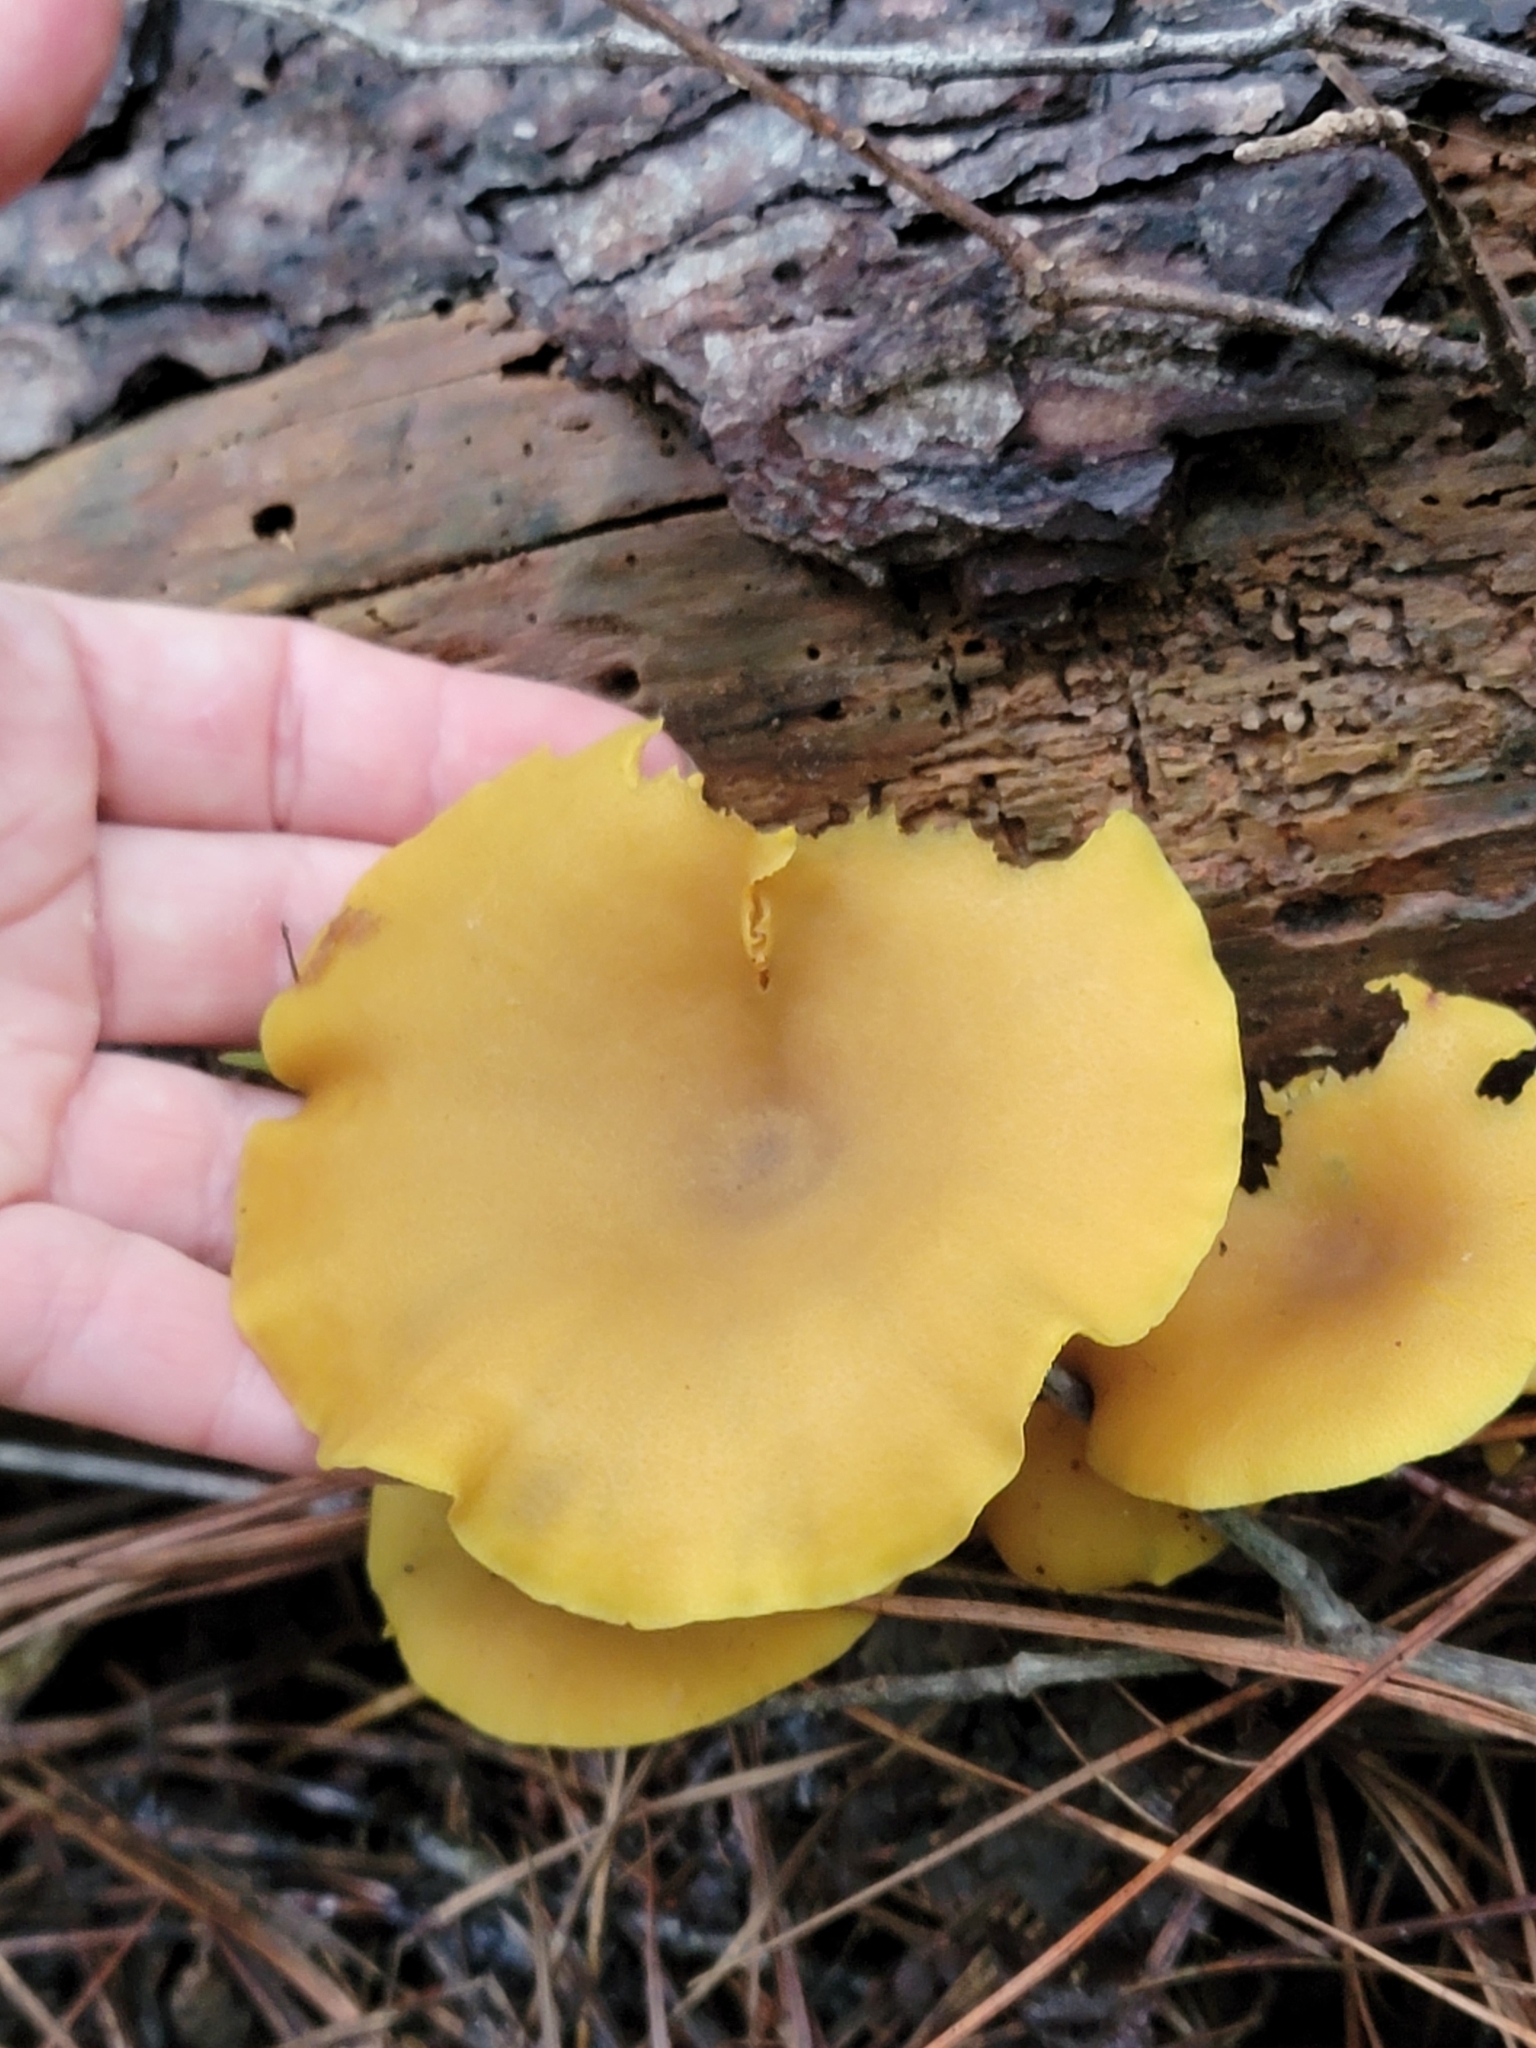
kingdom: Fungi
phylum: Basidiomycota
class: Agaricomycetes
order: Agaricales
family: Callistosporiaceae
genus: Callistosporium
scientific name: Callistosporium luteo-olivaceum
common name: Olive lute
